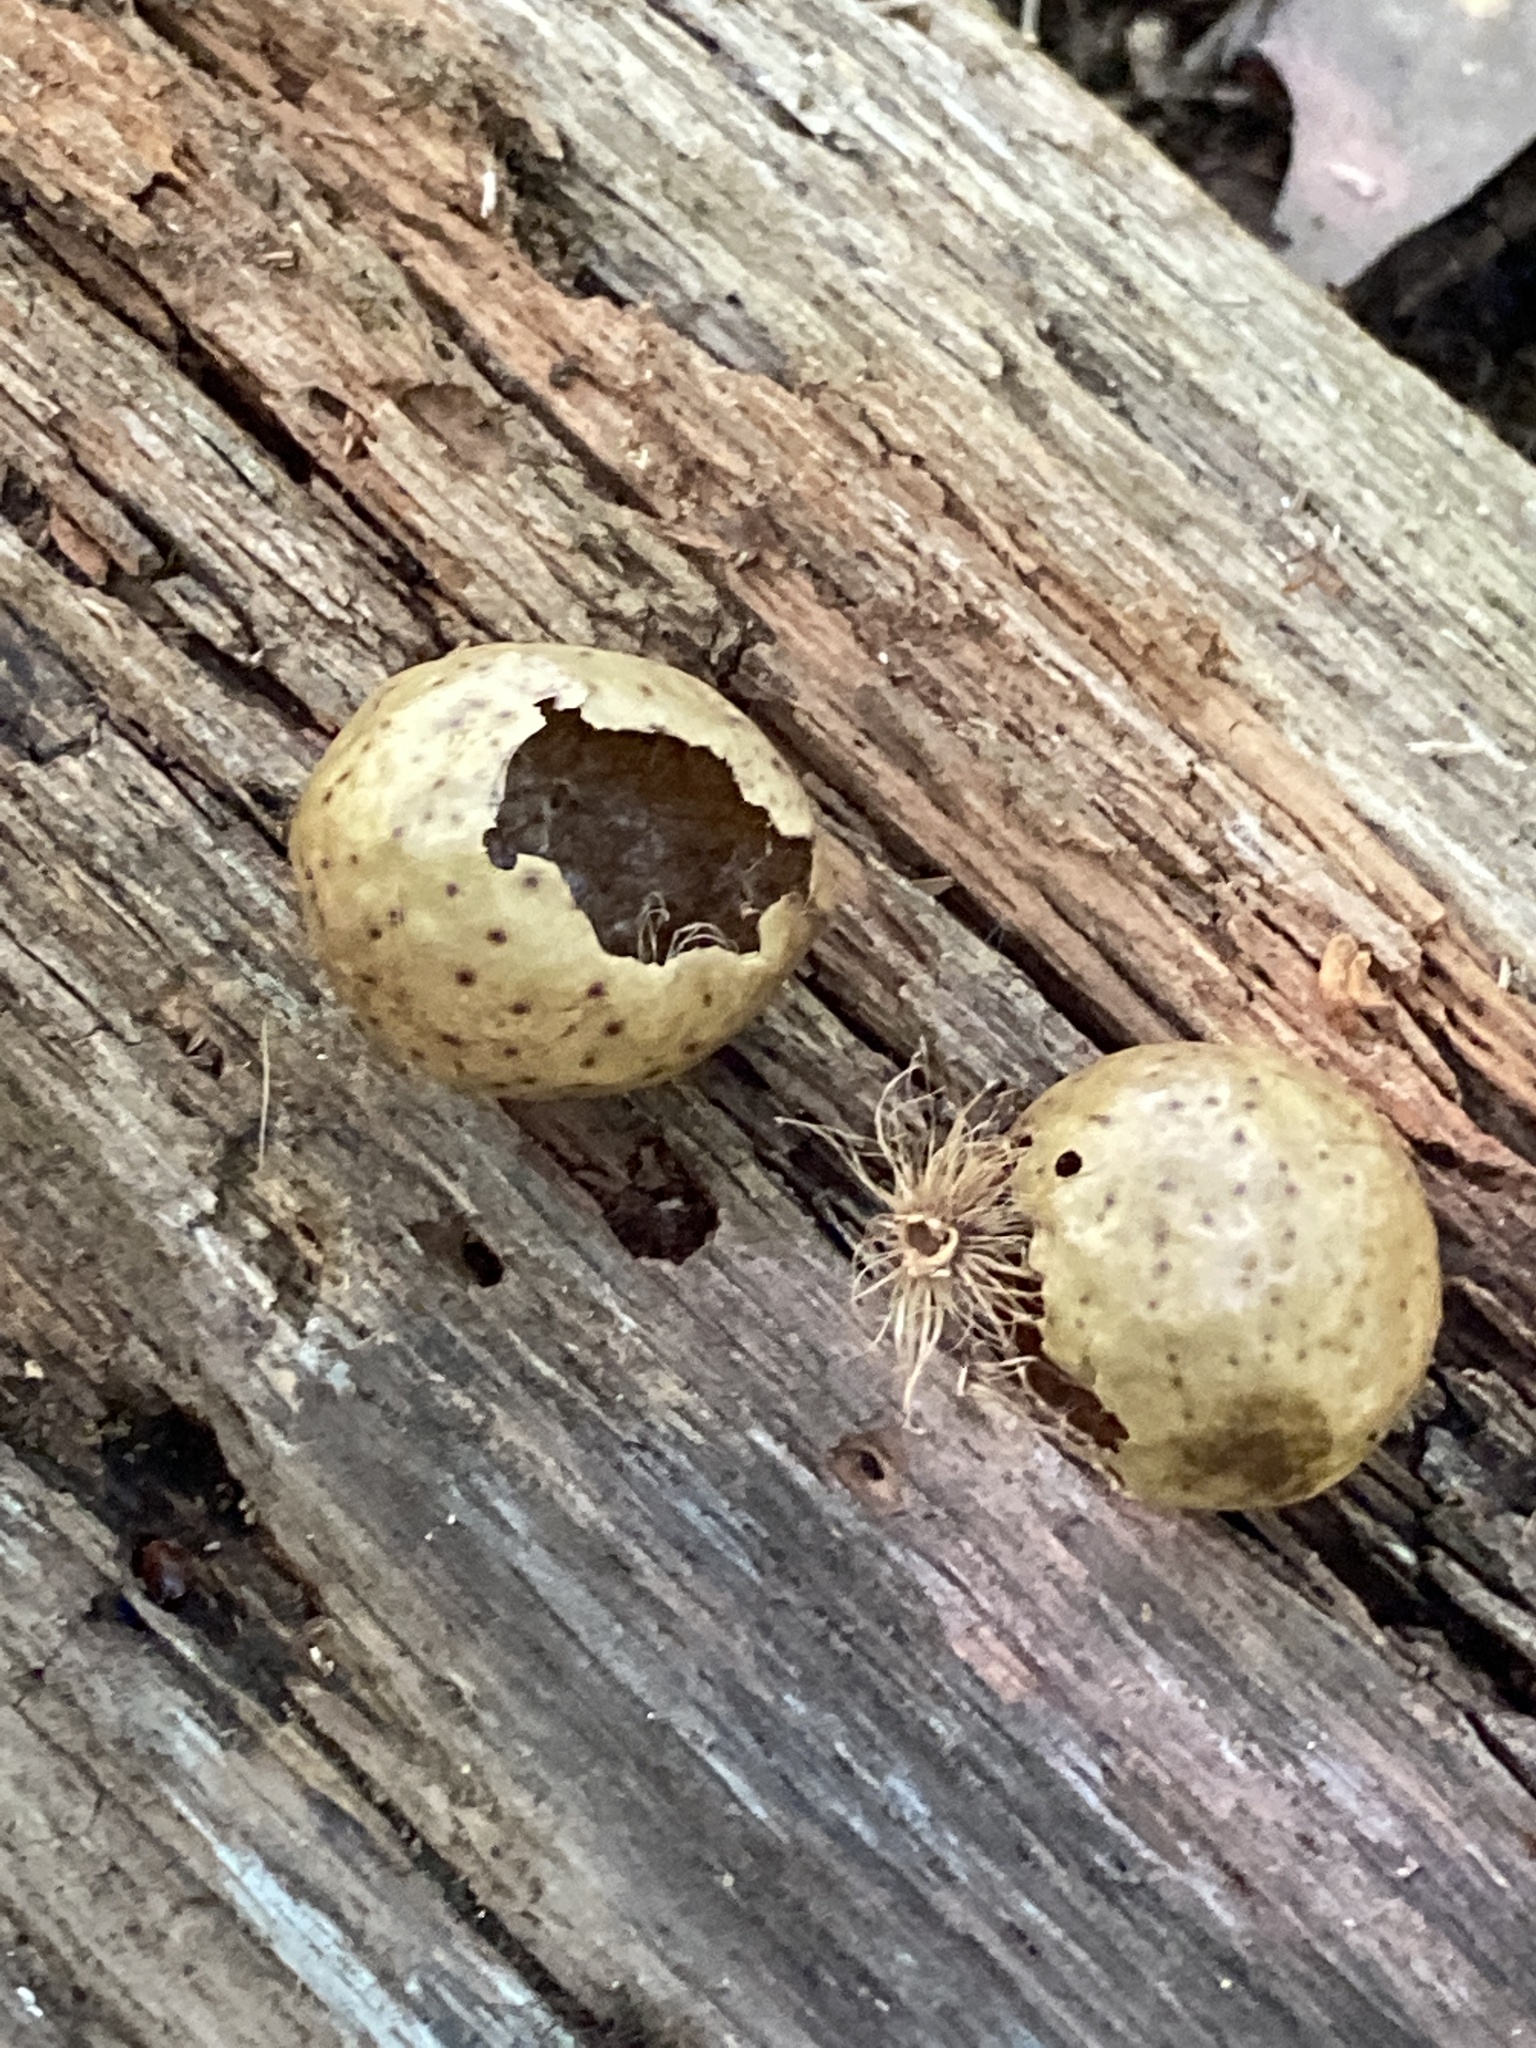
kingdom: Animalia
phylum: Arthropoda
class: Insecta
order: Hymenoptera
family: Cynipidae
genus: Amphibolips
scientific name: Amphibolips
